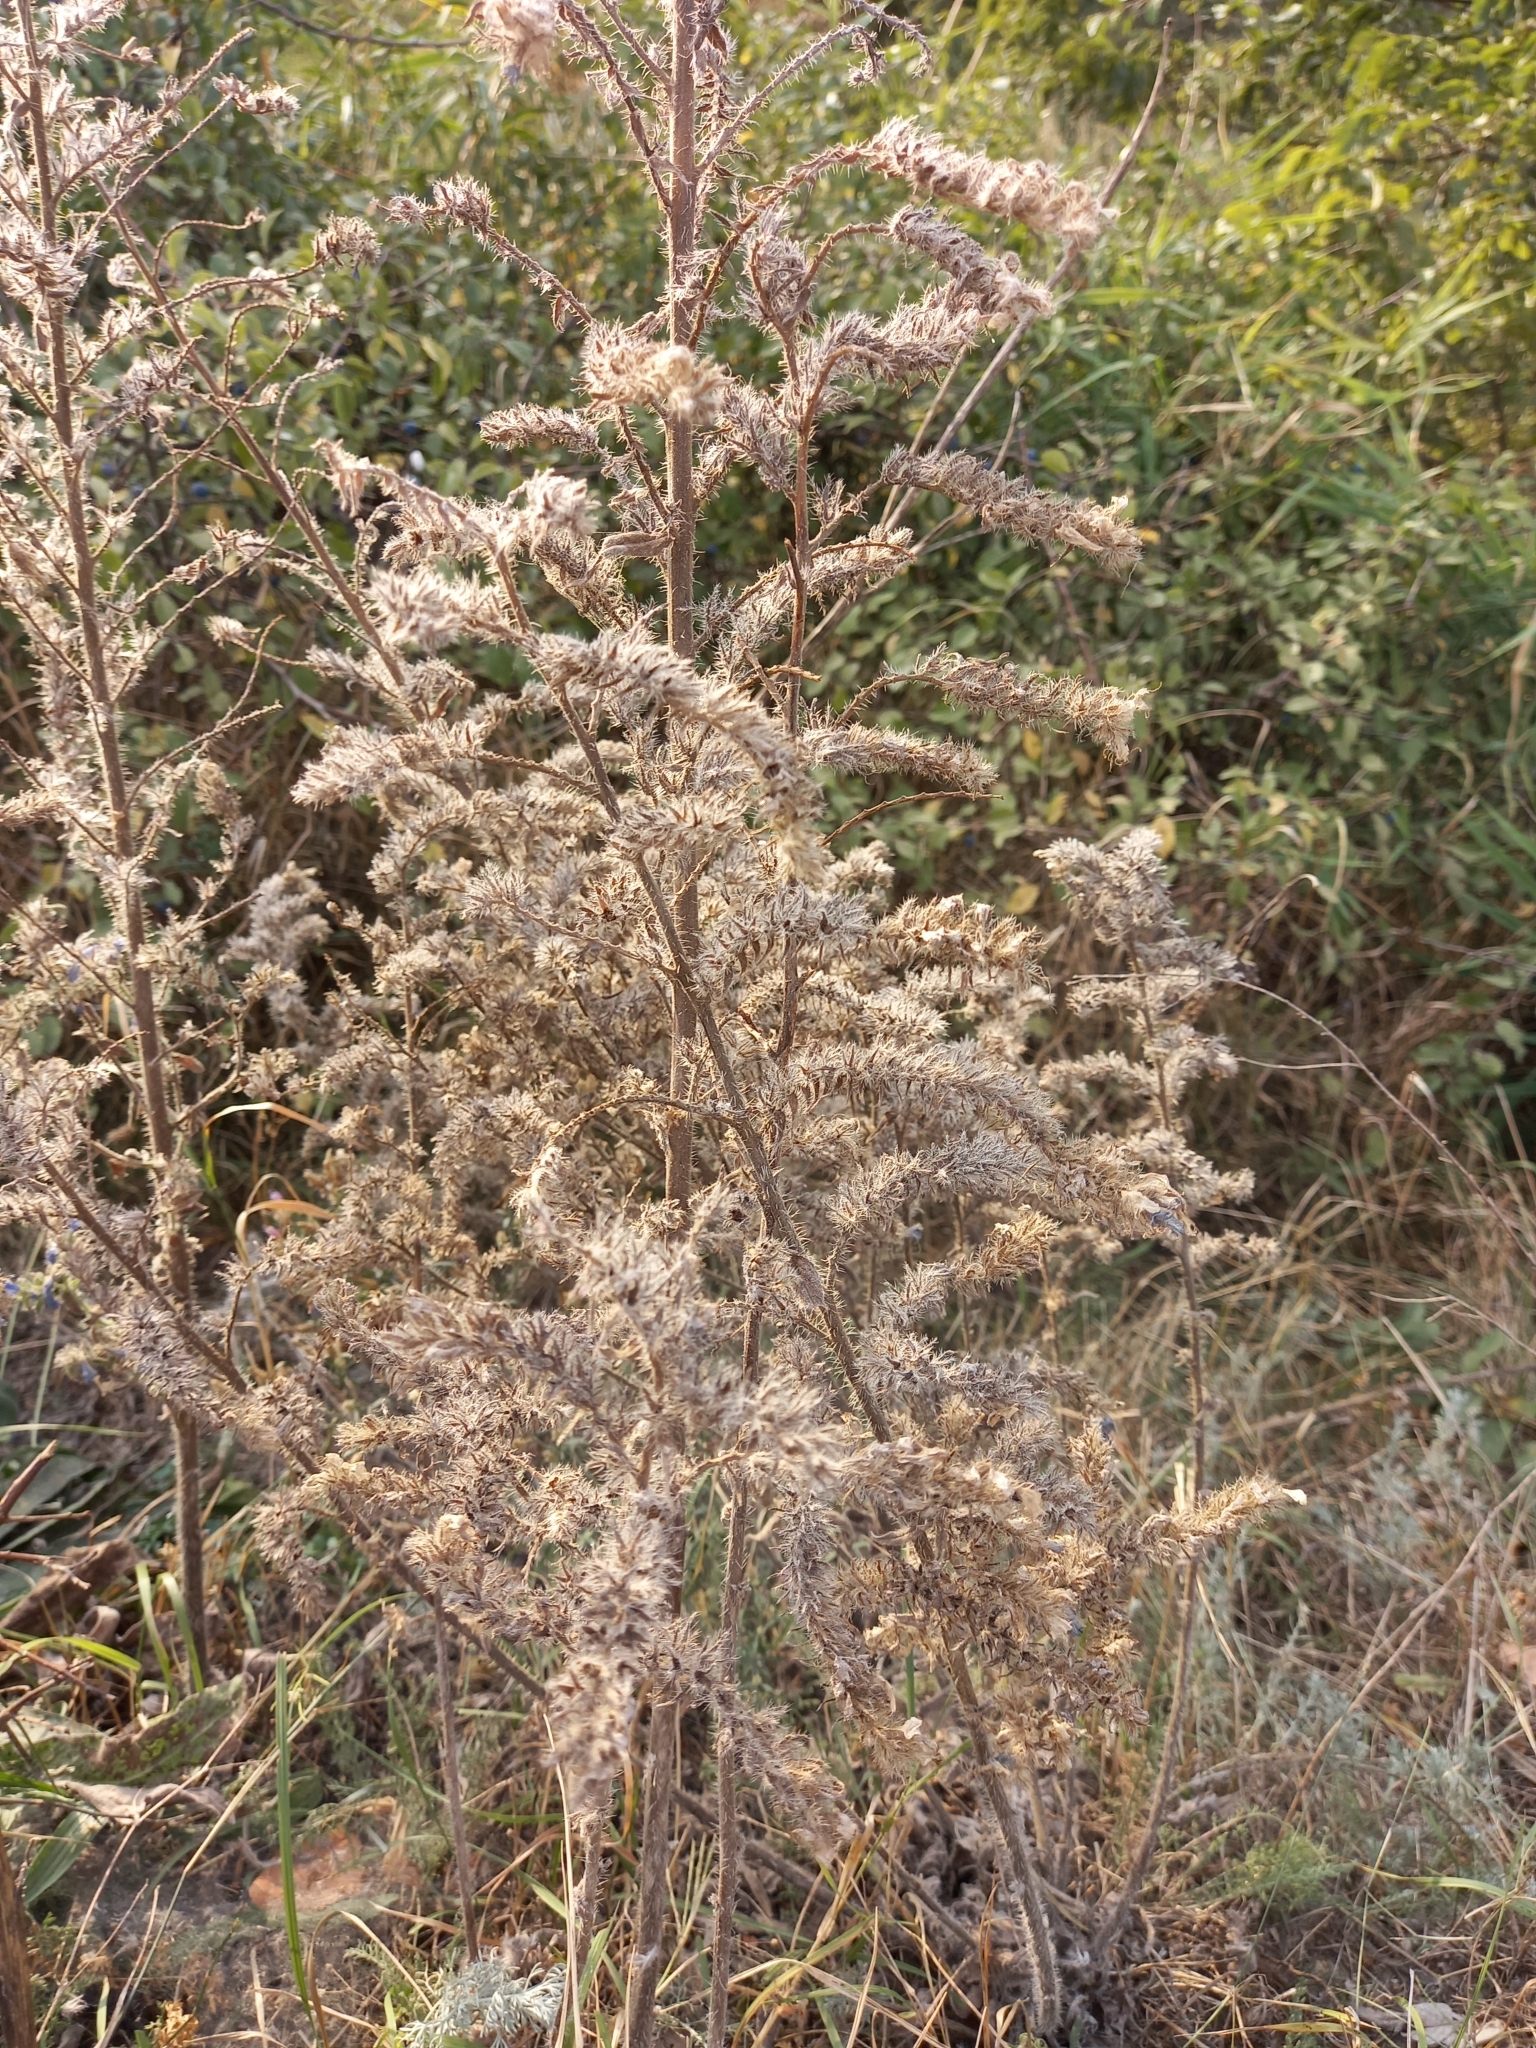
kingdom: Plantae
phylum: Tracheophyta
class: Magnoliopsida
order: Boraginales
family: Boraginaceae
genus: Echium
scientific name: Echium vulgare
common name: Common viper's bugloss
